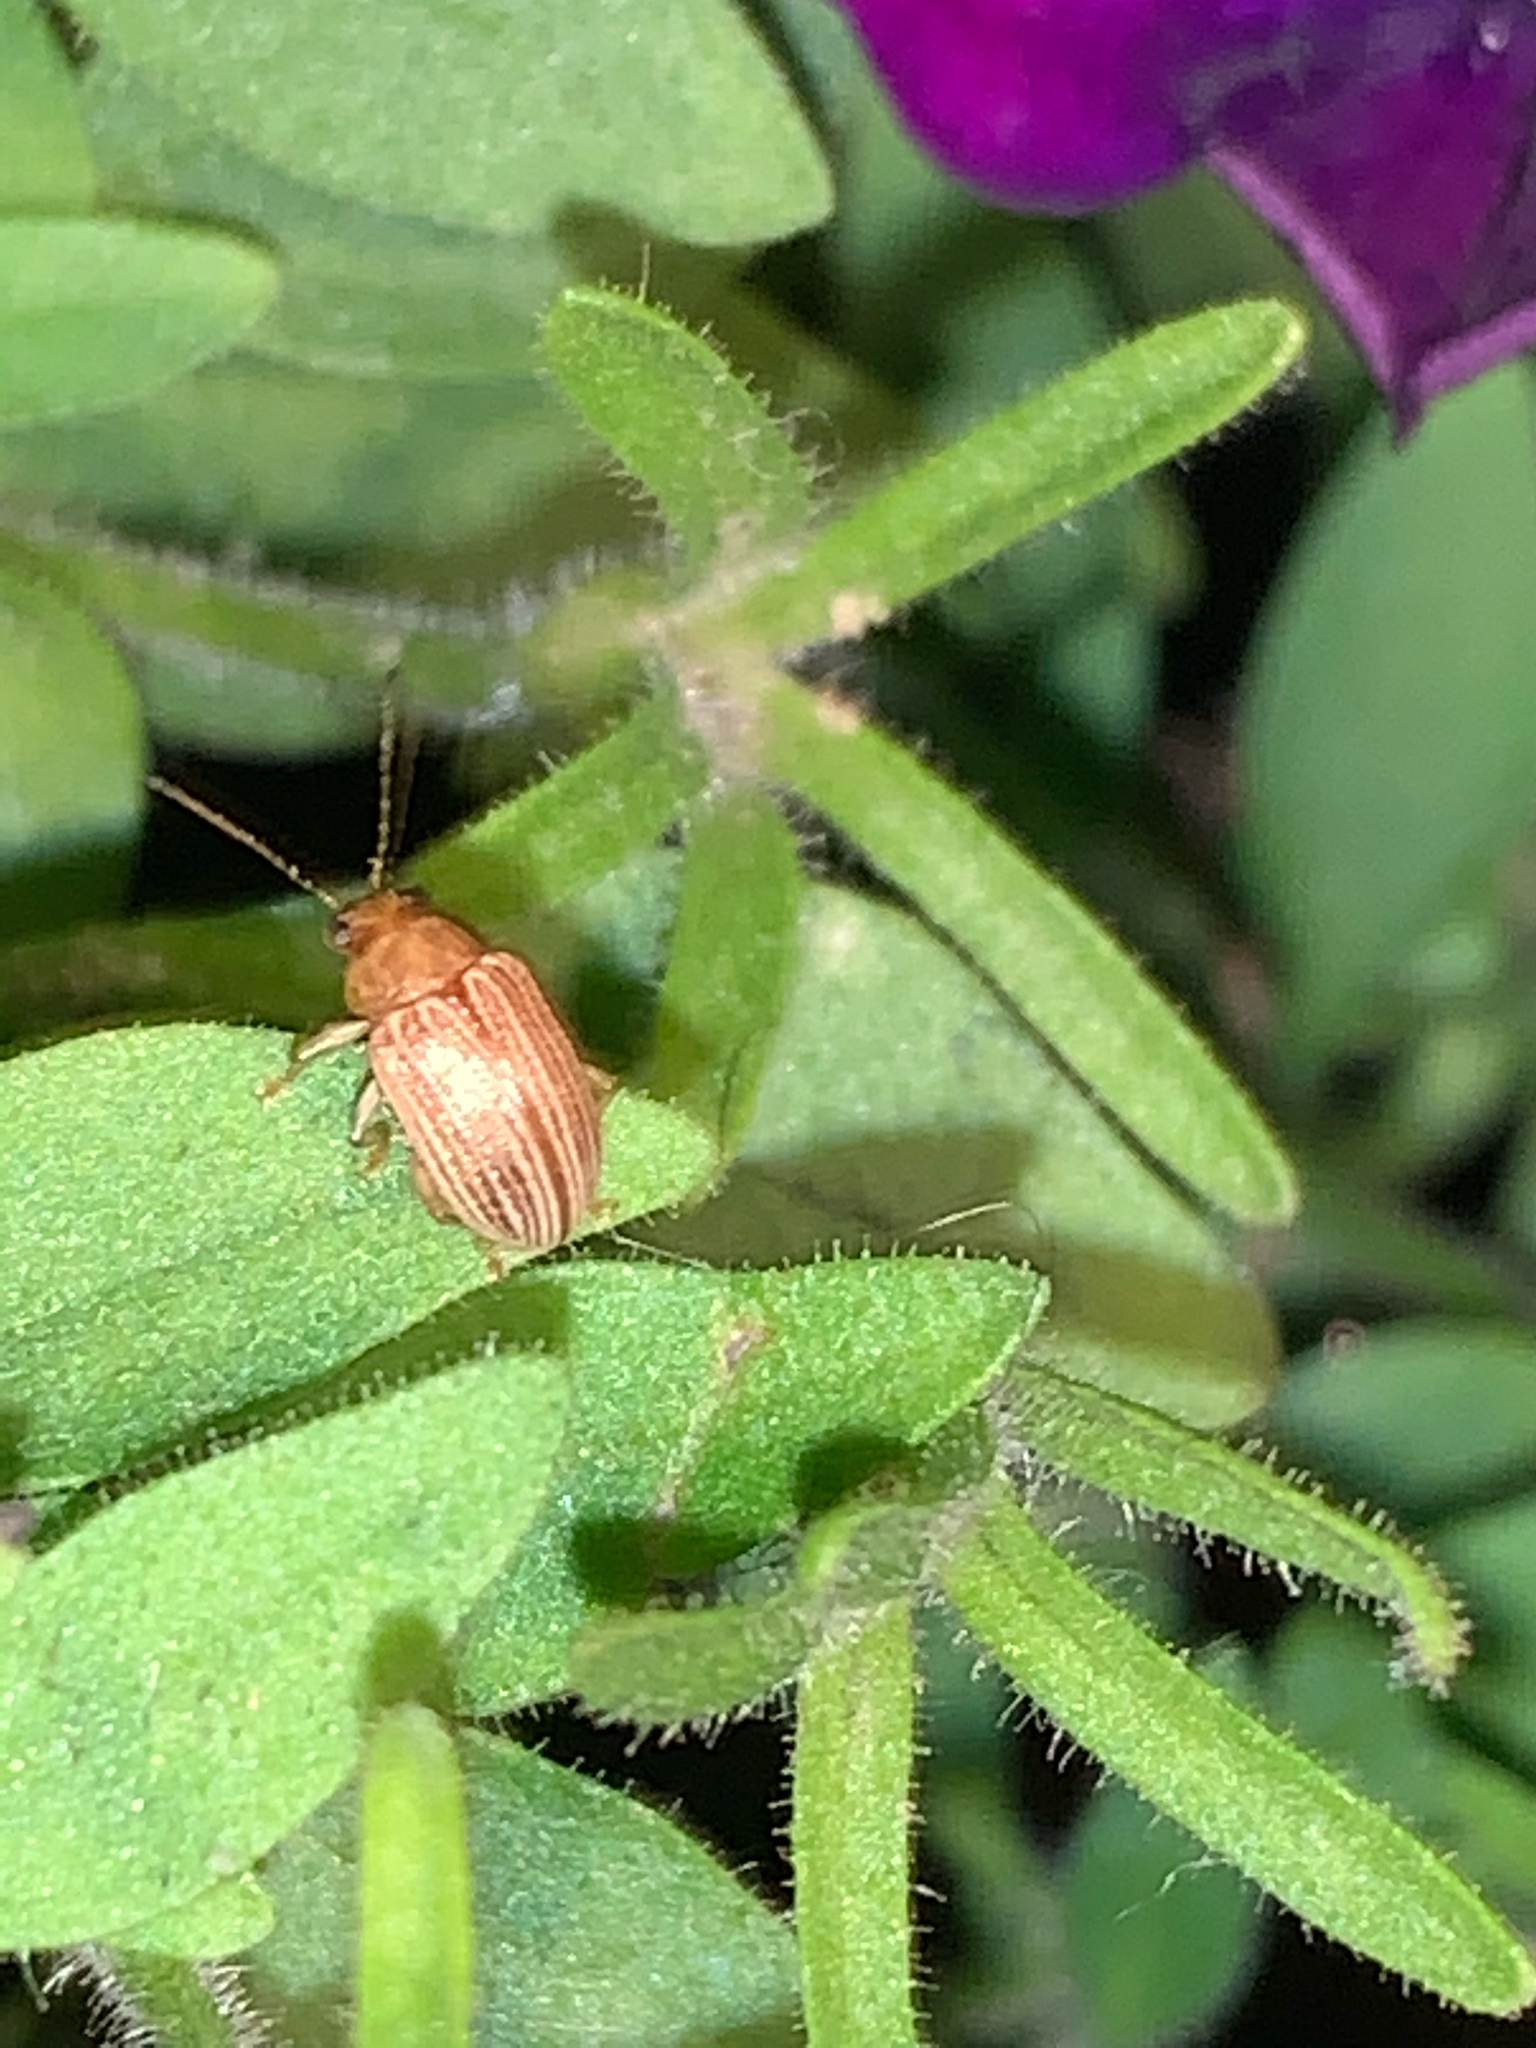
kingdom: Animalia
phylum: Arthropoda
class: Insecta
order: Coleoptera
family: Chrysomelidae
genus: Colaspis
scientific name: Colaspis brunnea
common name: Grape colaspis
